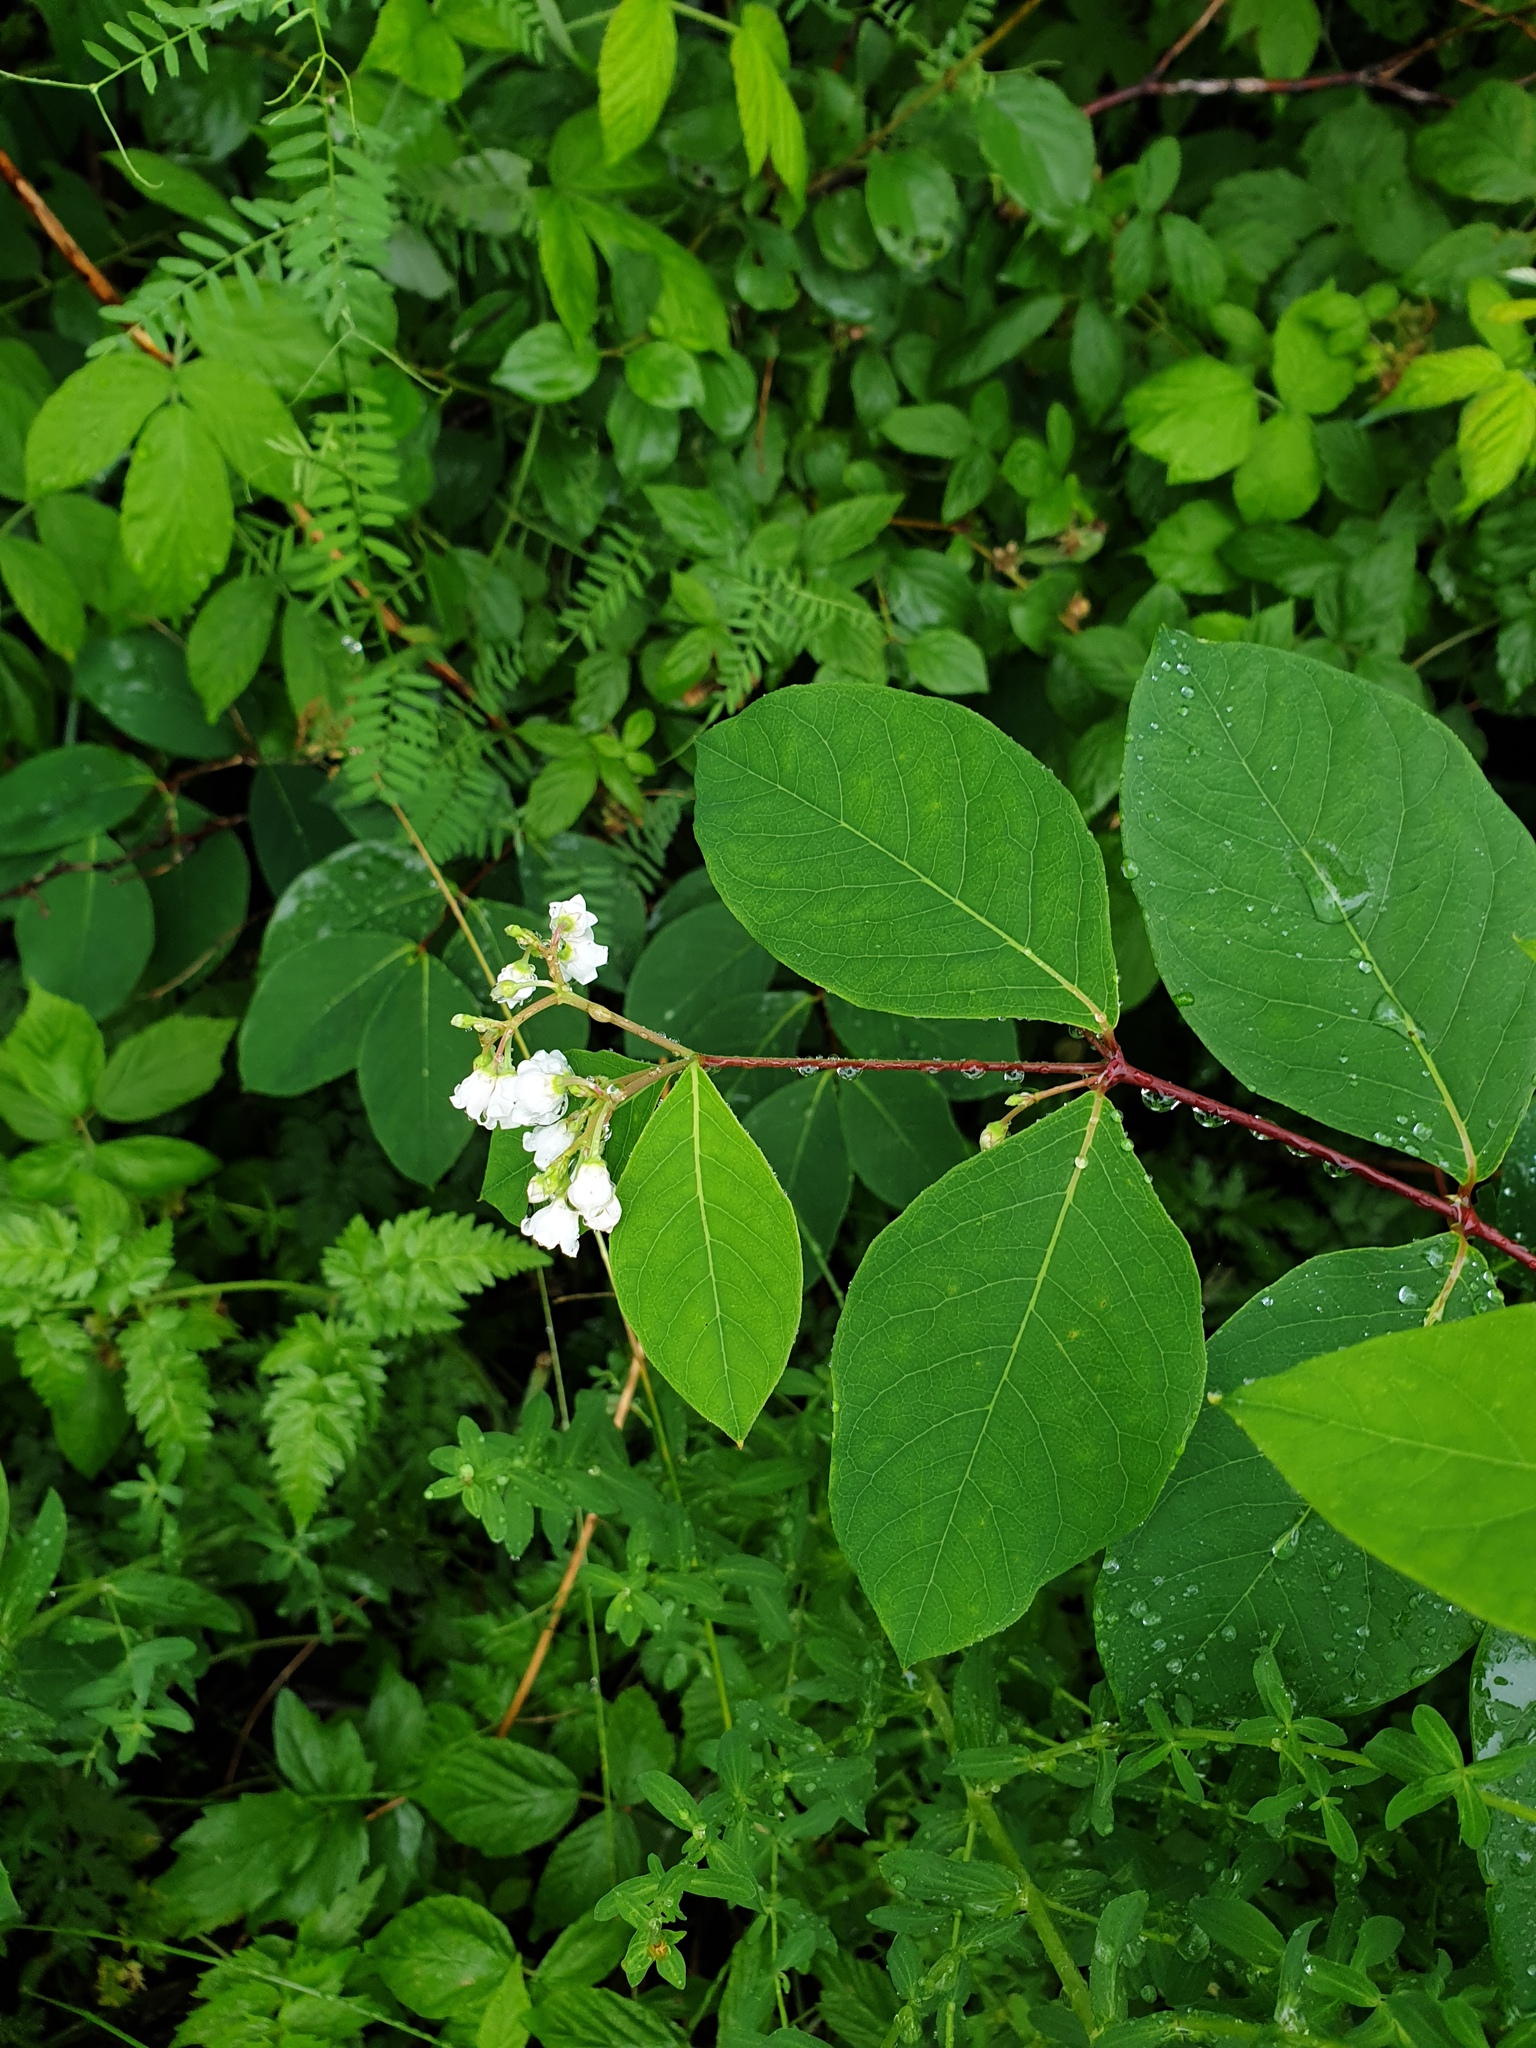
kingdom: Plantae
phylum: Tracheophyta
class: Magnoliopsida
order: Gentianales
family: Apocynaceae
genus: Apocynum
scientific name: Apocynum androsaemifolium
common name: Spreading dogbane
